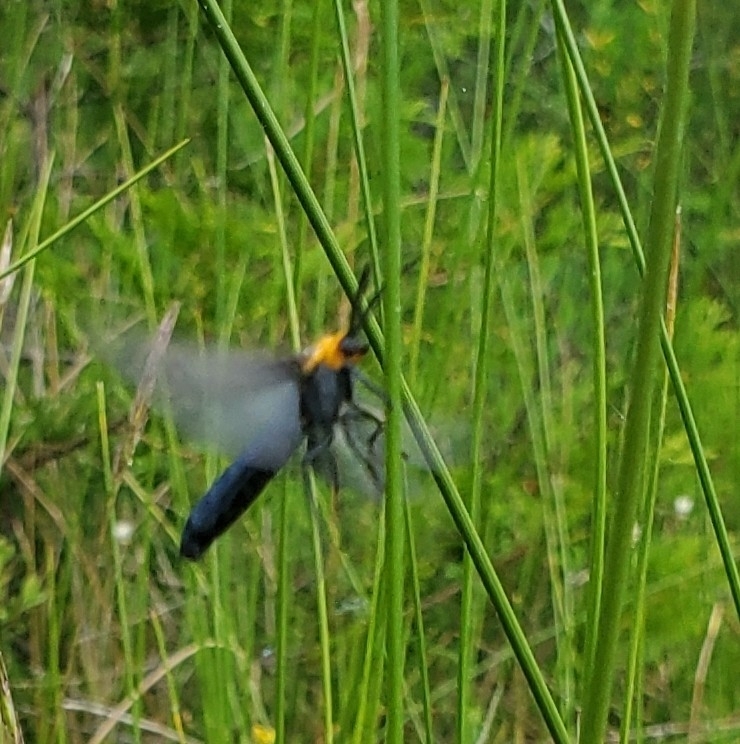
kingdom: Animalia
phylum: Arthropoda
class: Insecta
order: Lepidoptera
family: Erebidae
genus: Cisseps
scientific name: Cisseps fulvicollis
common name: Yellow-collared scape moth
